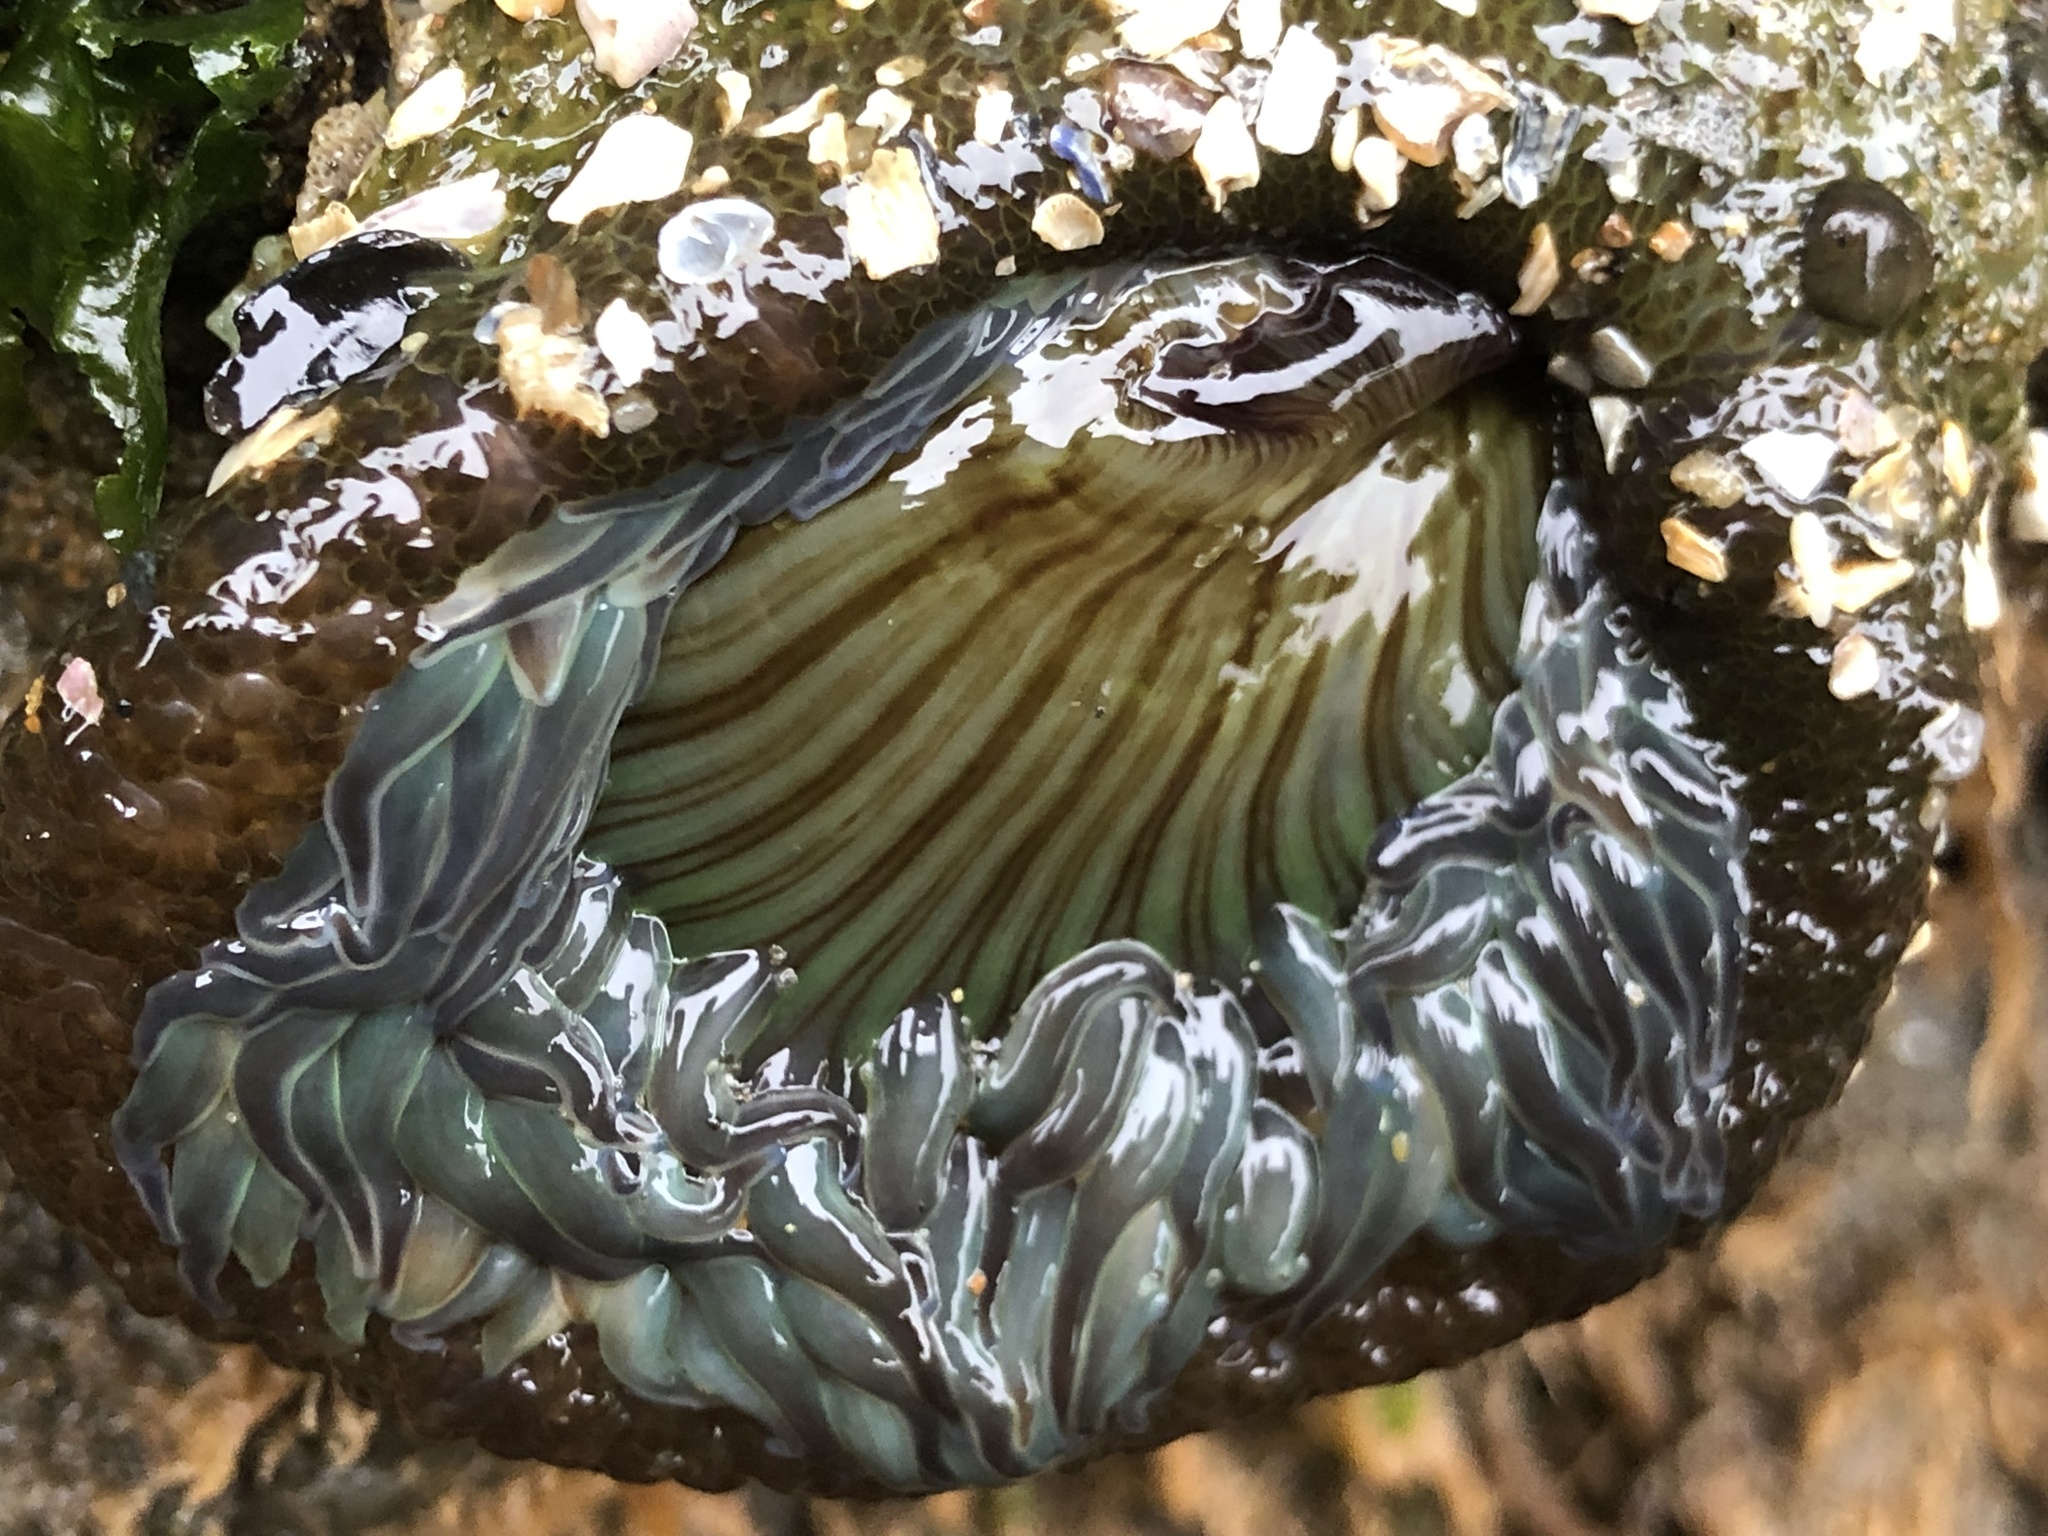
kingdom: Animalia
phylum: Cnidaria
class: Anthozoa
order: Actiniaria
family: Actiniidae
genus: Anthopleura
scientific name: Anthopleura sola
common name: Sun anemone
